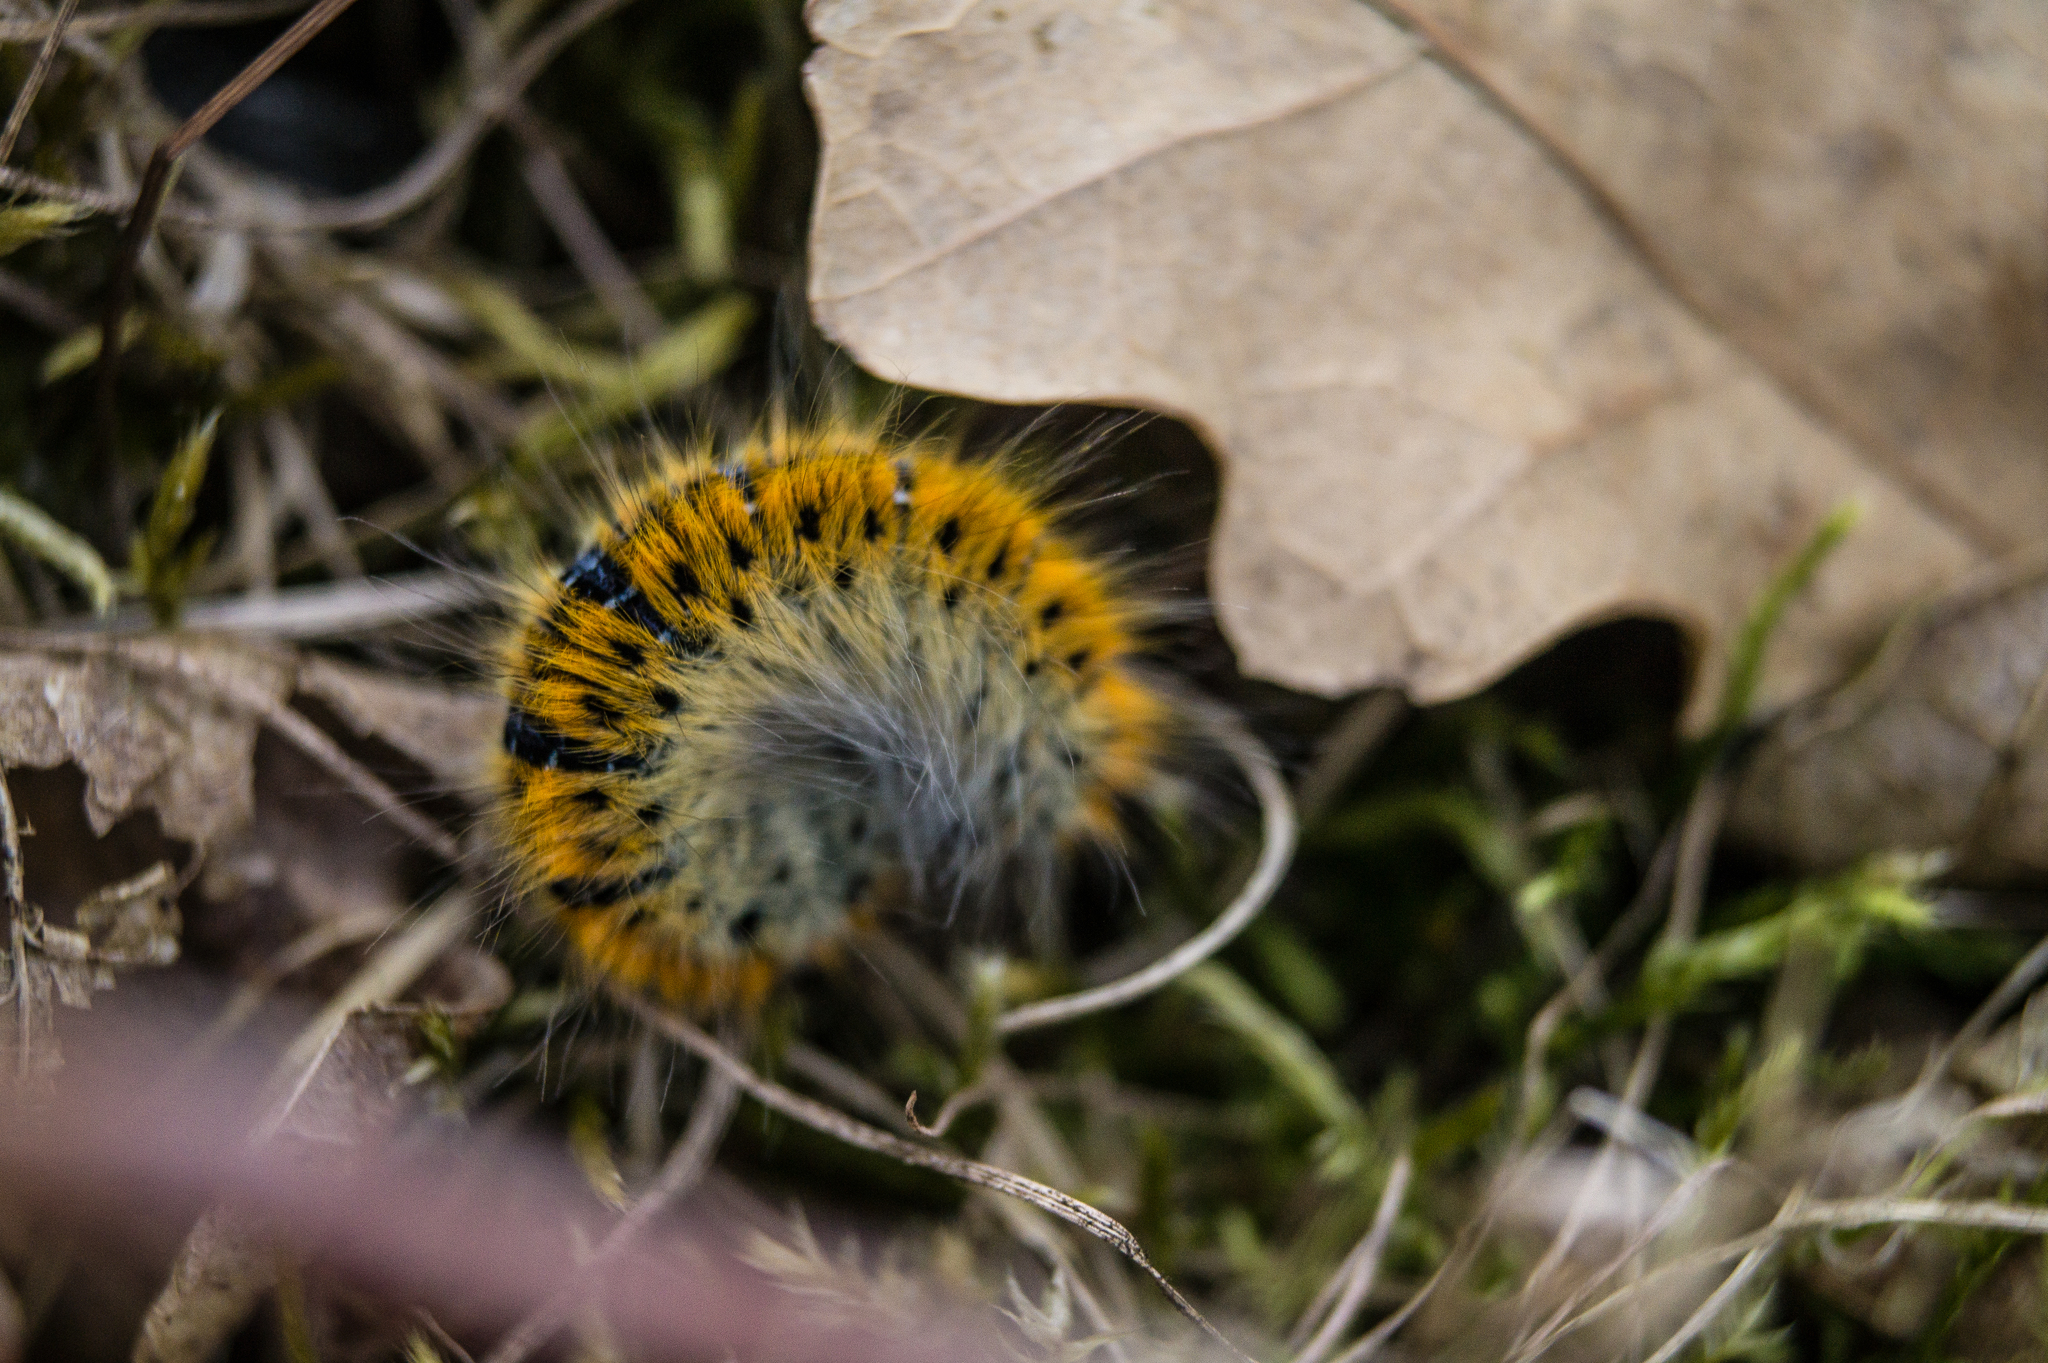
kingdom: Animalia
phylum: Arthropoda
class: Insecta
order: Lepidoptera
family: Lasiocampidae
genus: Lasiocampa
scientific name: Lasiocampa trifolii
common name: Grass eggar
